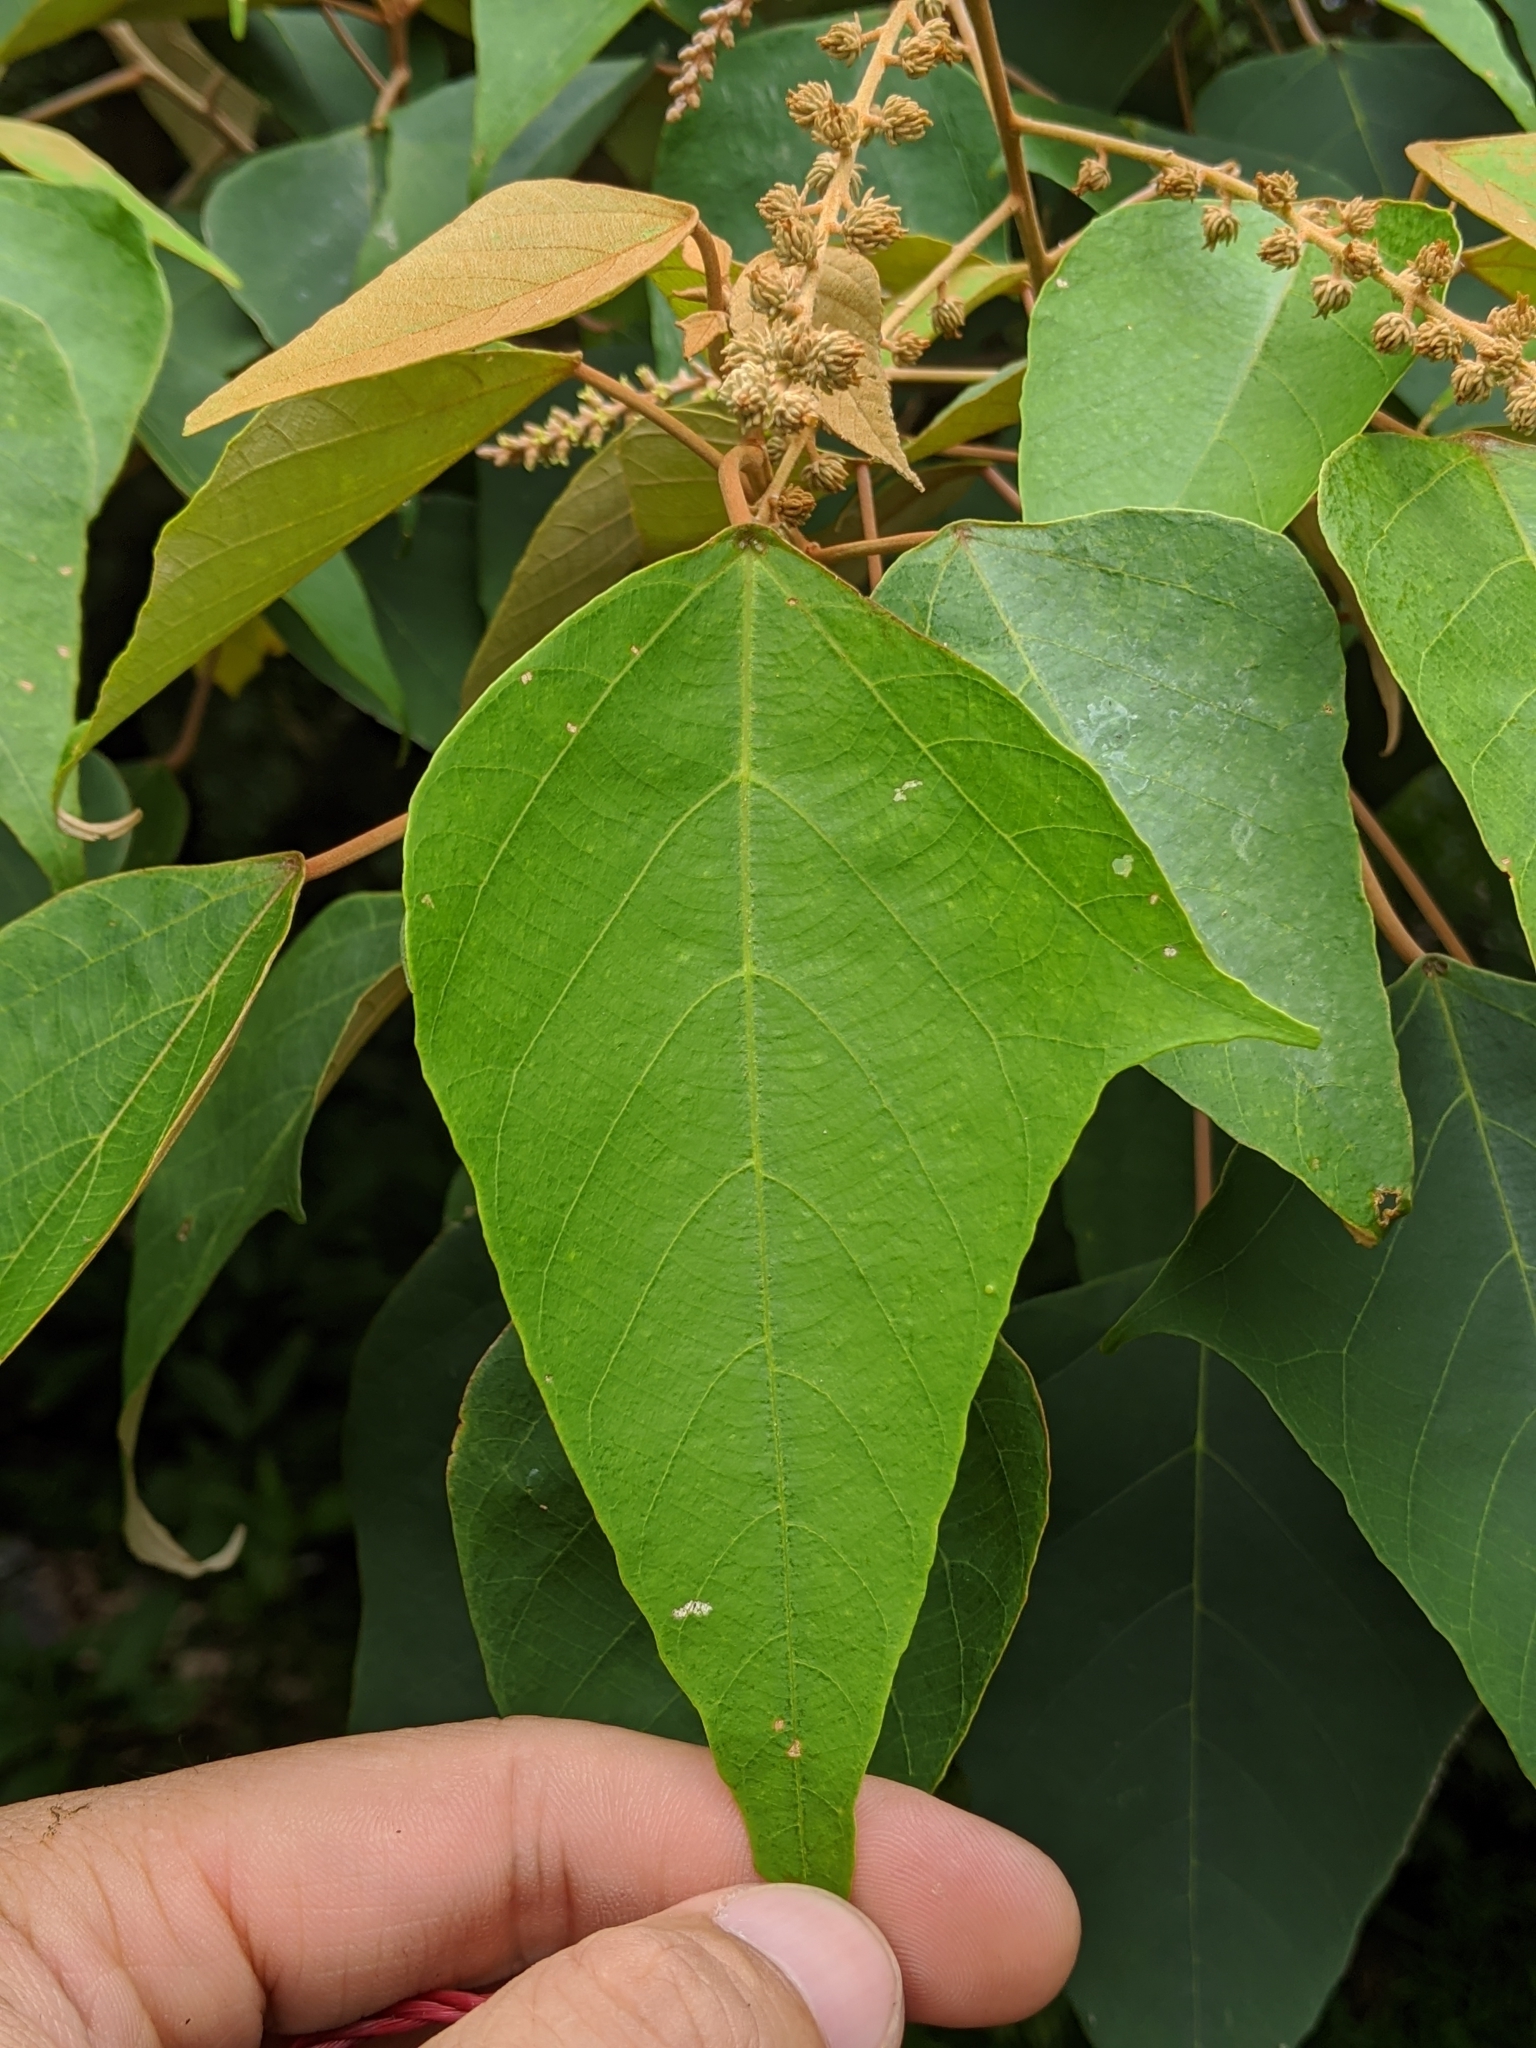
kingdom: Plantae
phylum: Tracheophyta
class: Magnoliopsida
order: Malpighiales
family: Euphorbiaceae
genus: Mallotus
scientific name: Mallotus paniculatus
